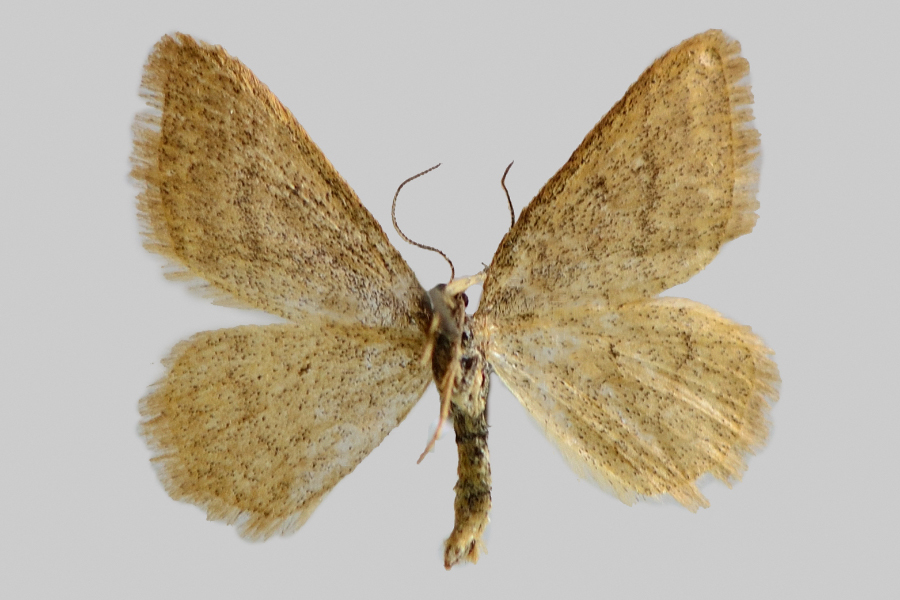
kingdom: Animalia
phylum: Arthropoda
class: Insecta
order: Lepidoptera
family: Geometridae
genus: Idaea
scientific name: Idaea pallidata
